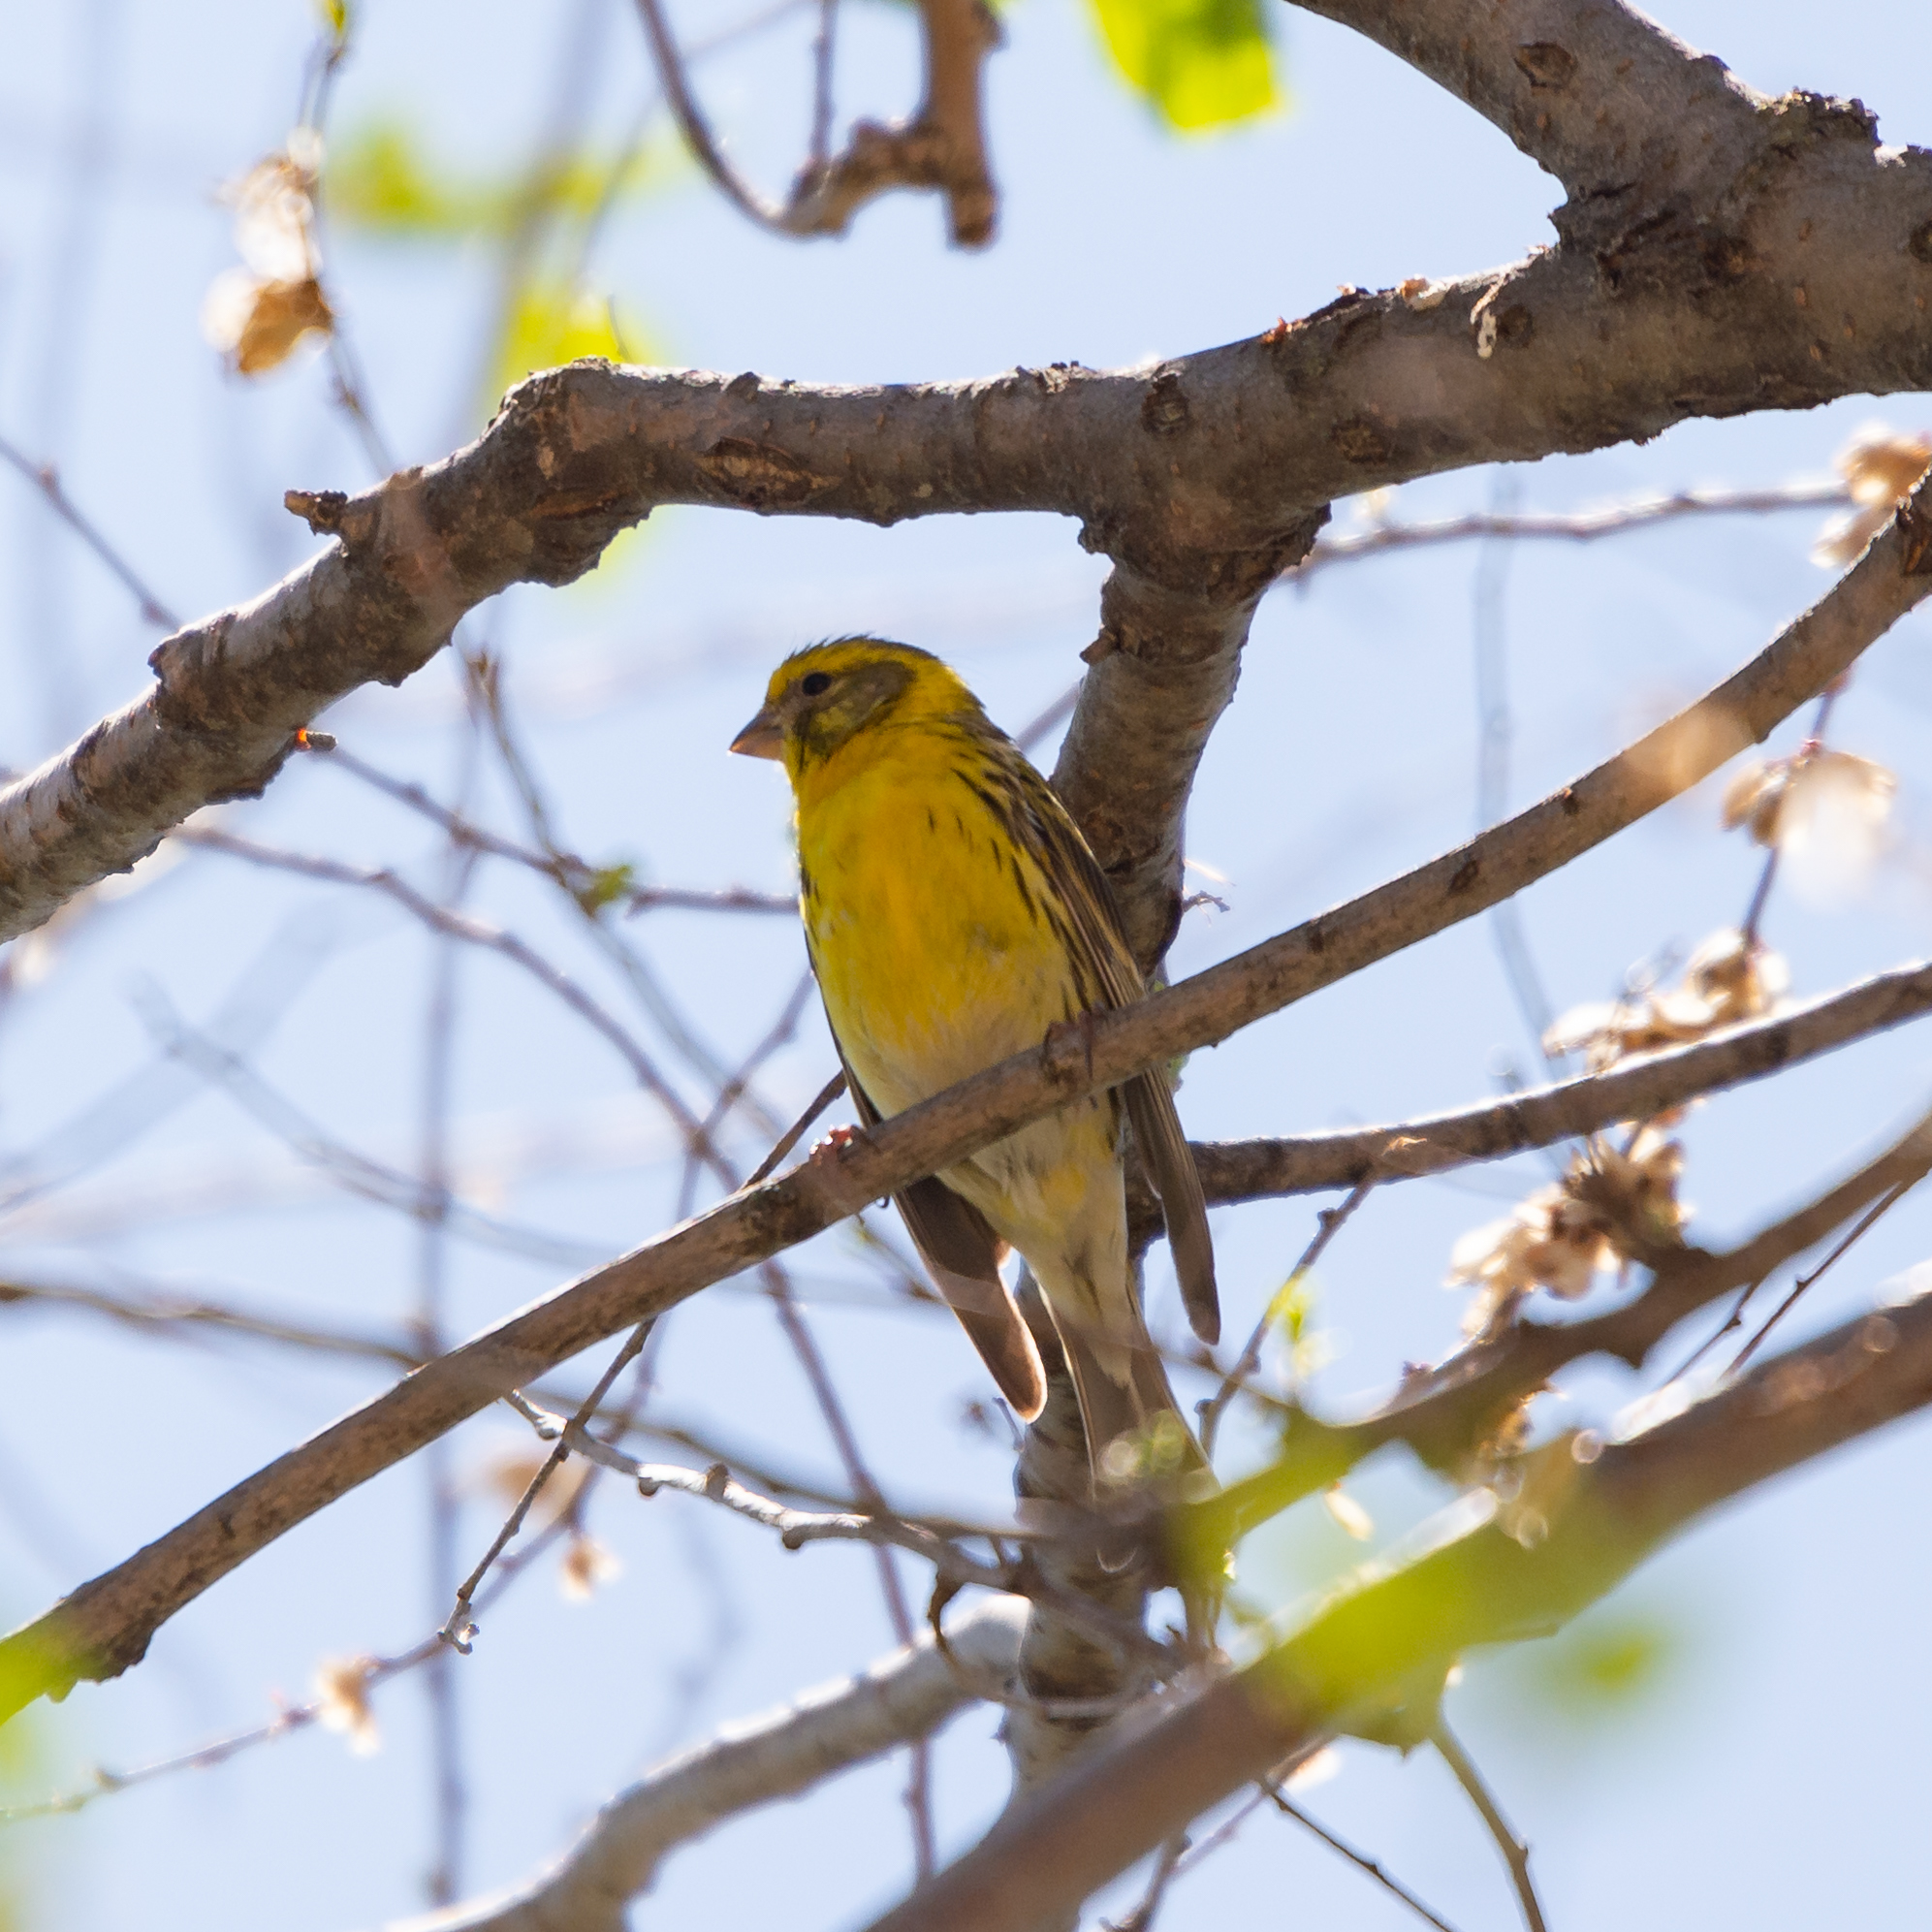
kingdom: Animalia
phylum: Chordata
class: Aves
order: Passeriformes
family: Fringillidae
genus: Serinus
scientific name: Serinus serinus
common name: European serin
